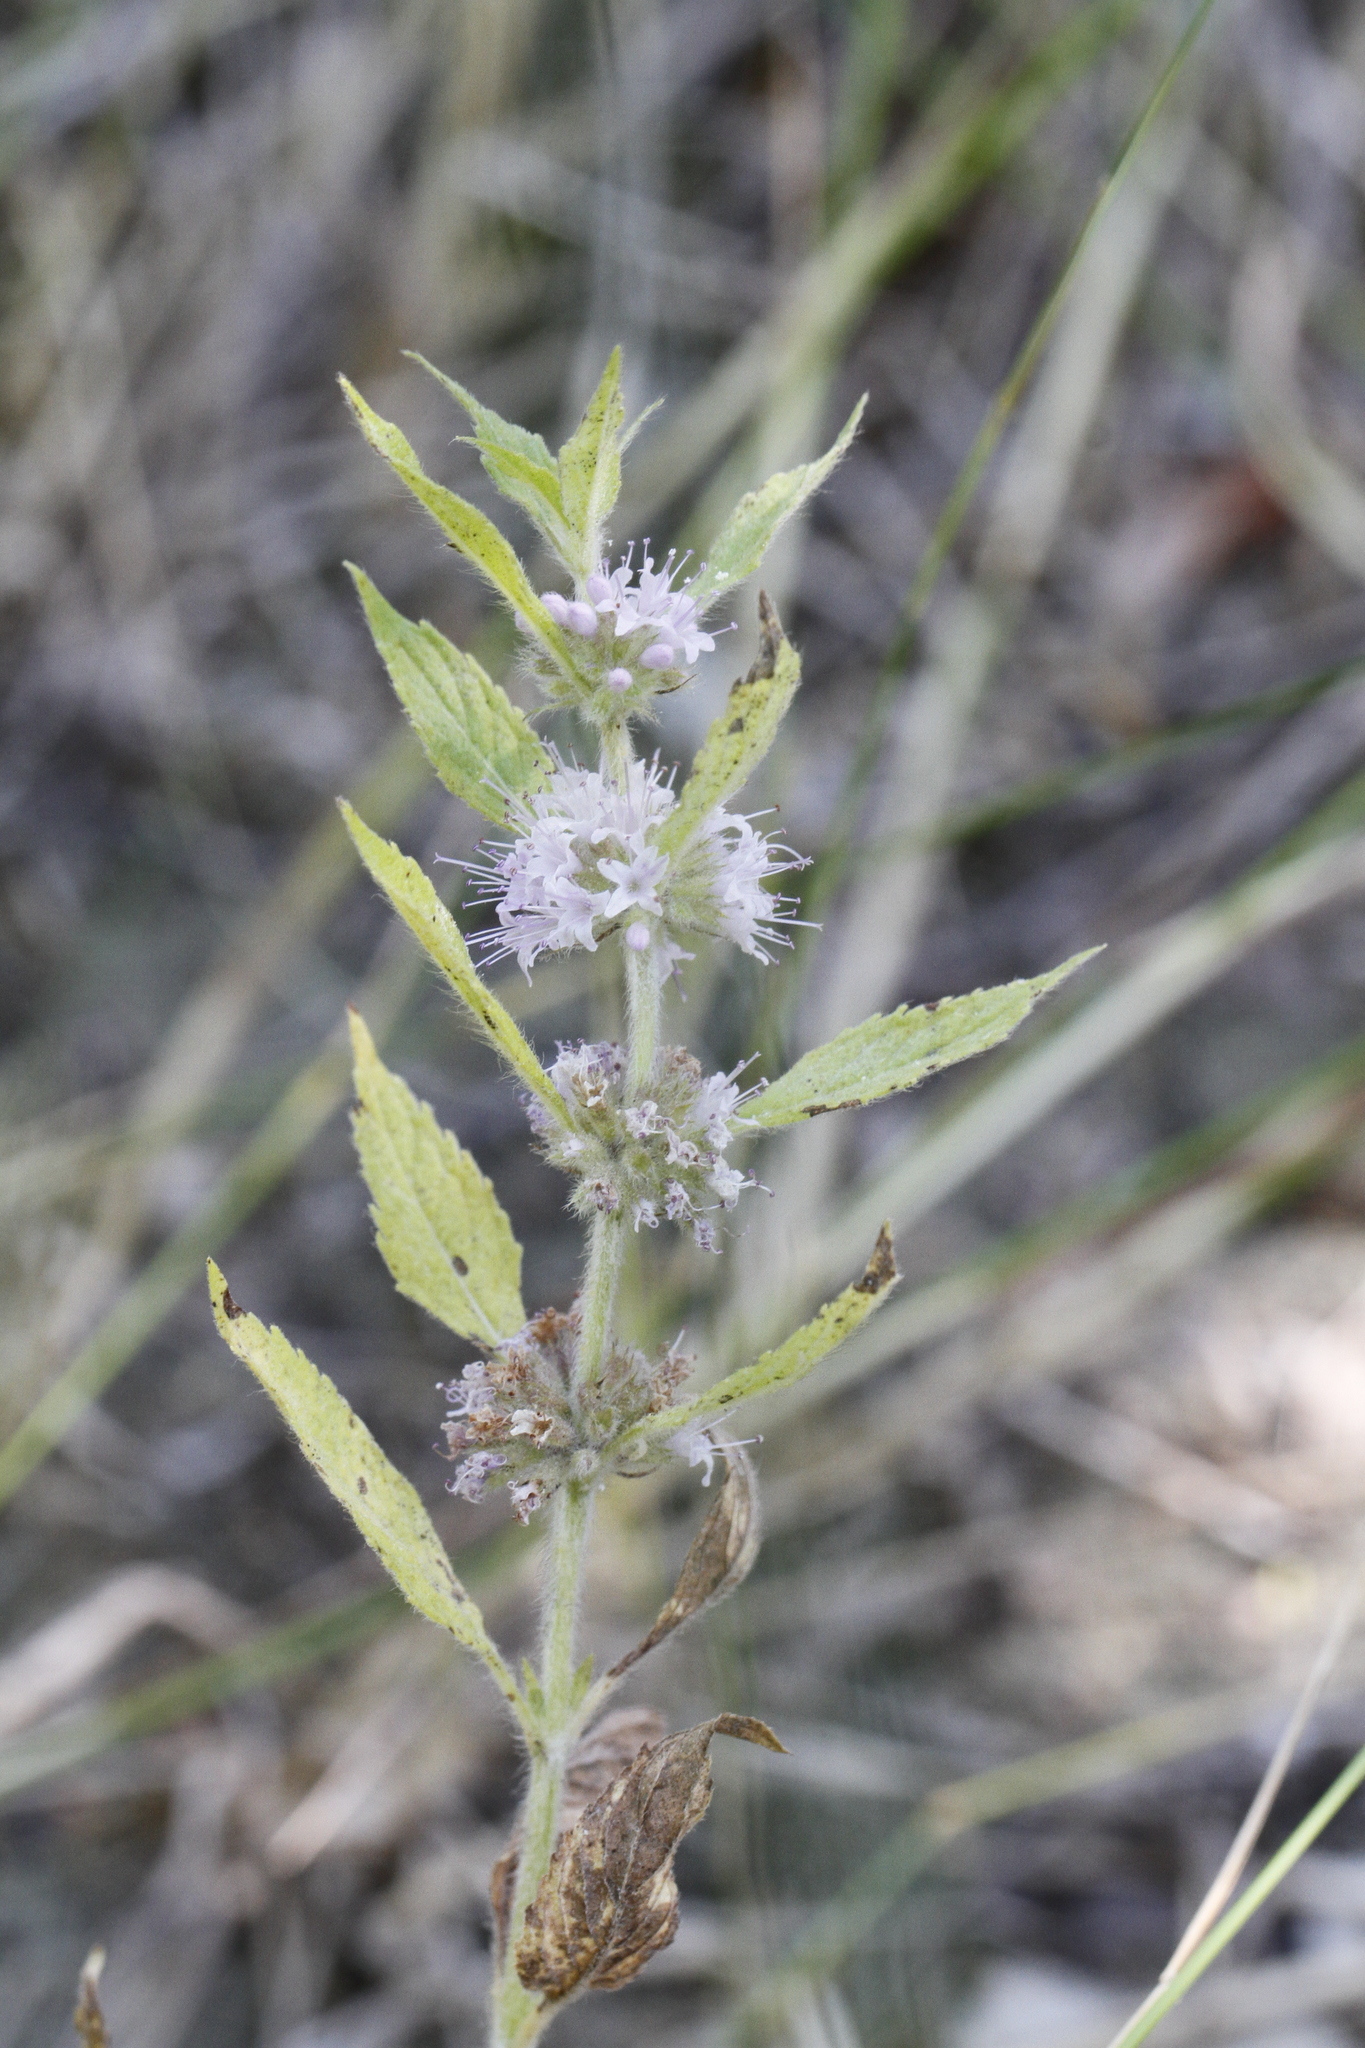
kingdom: Plantae
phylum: Tracheophyta
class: Magnoliopsida
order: Lamiales
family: Lamiaceae
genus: Mentha
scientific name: Mentha canadensis
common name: American corn mint
